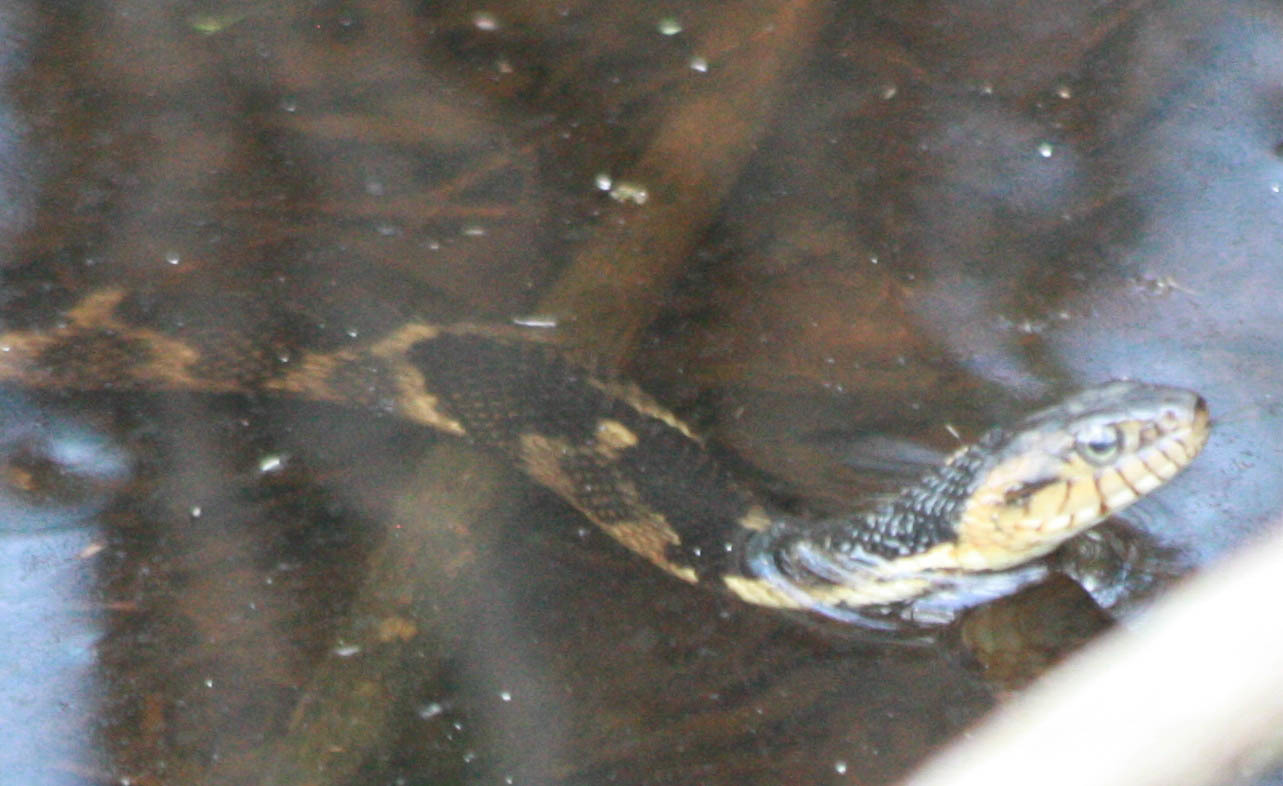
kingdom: Animalia
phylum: Chordata
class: Squamata
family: Colubridae
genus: Nerodia
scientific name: Nerodia fasciata
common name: Southern water snake
